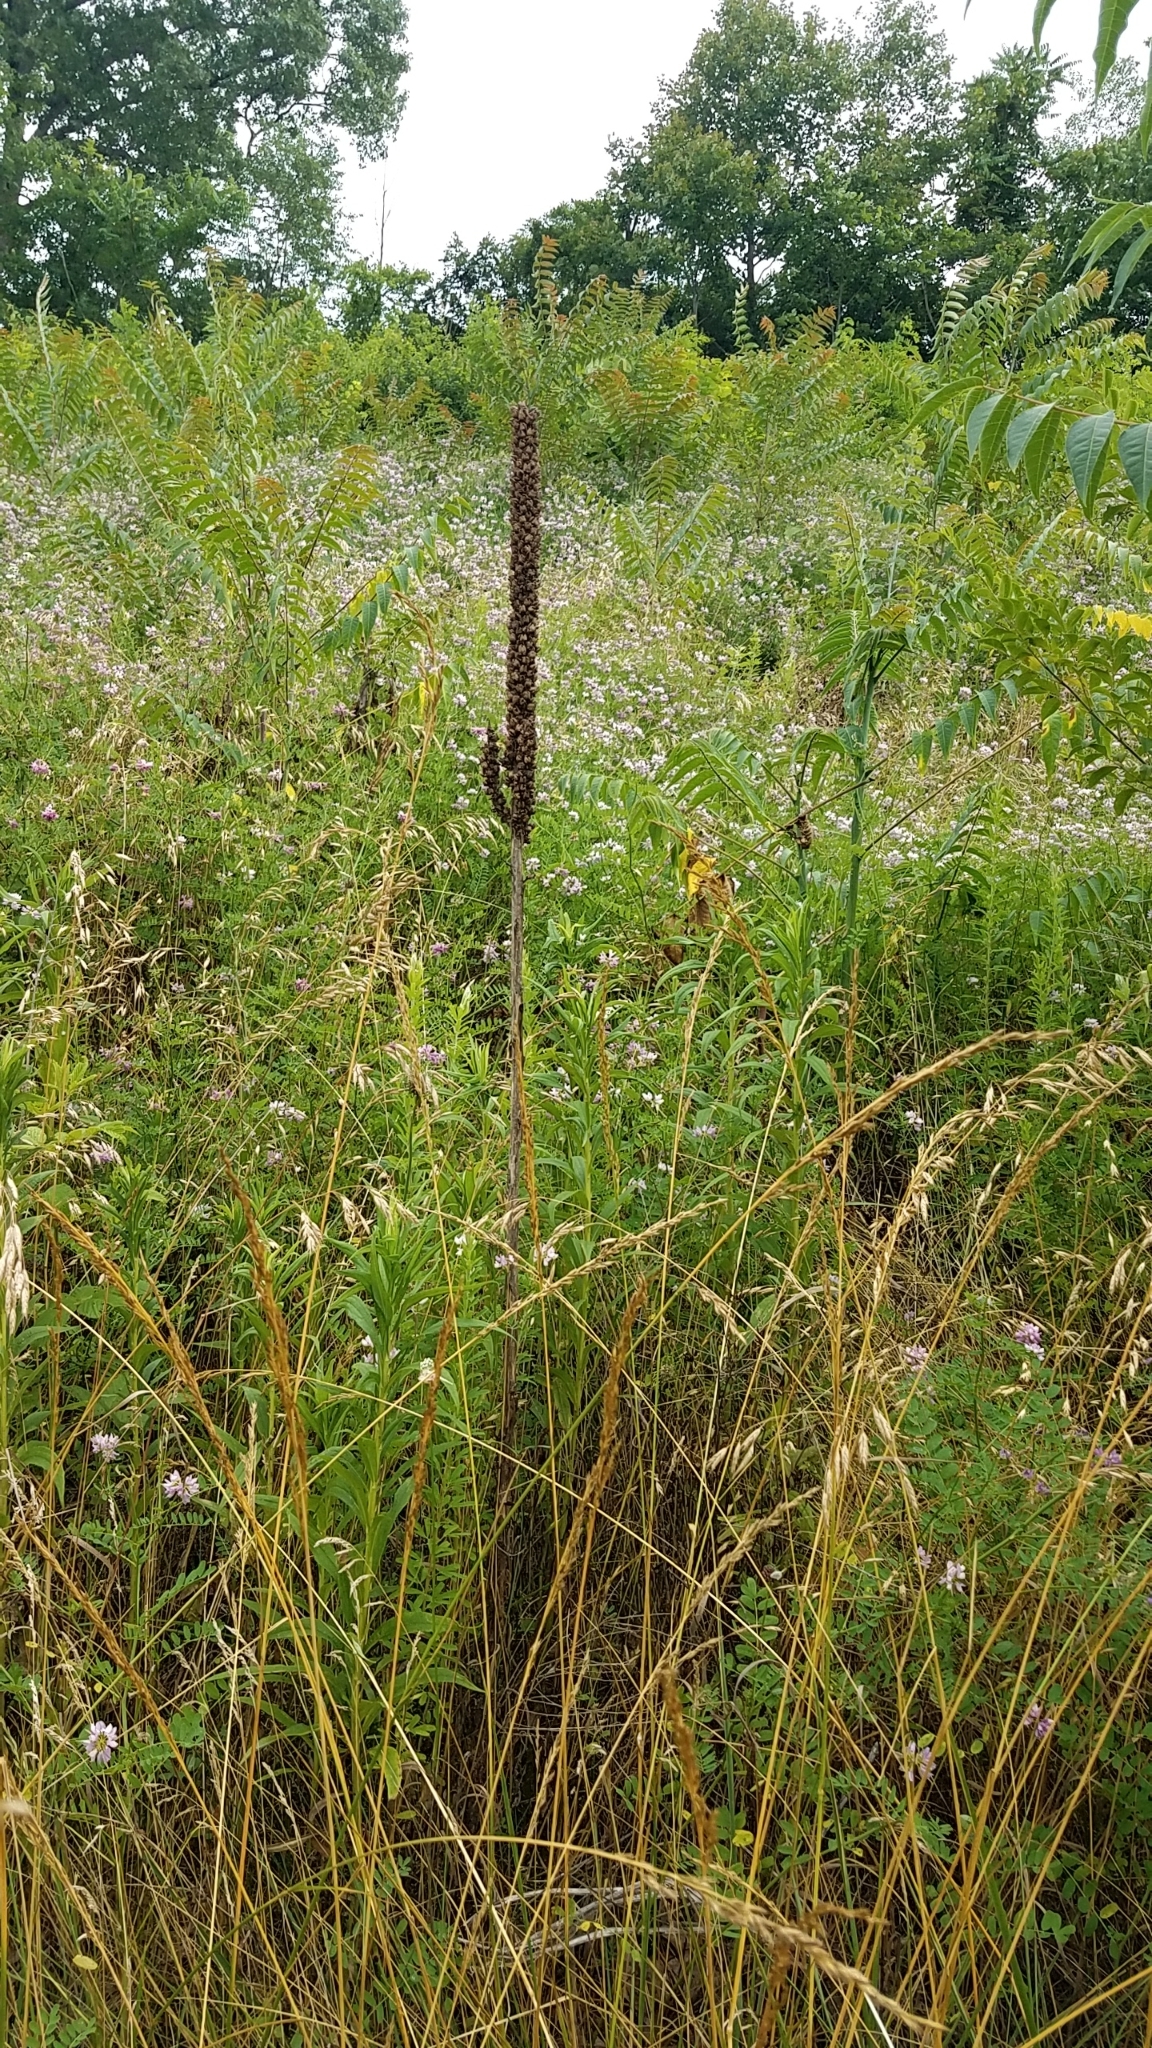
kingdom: Plantae
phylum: Tracheophyta
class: Magnoliopsida
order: Lamiales
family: Scrophulariaceae
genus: Verbascum
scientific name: Verbascum thapsus
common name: Common mullein
